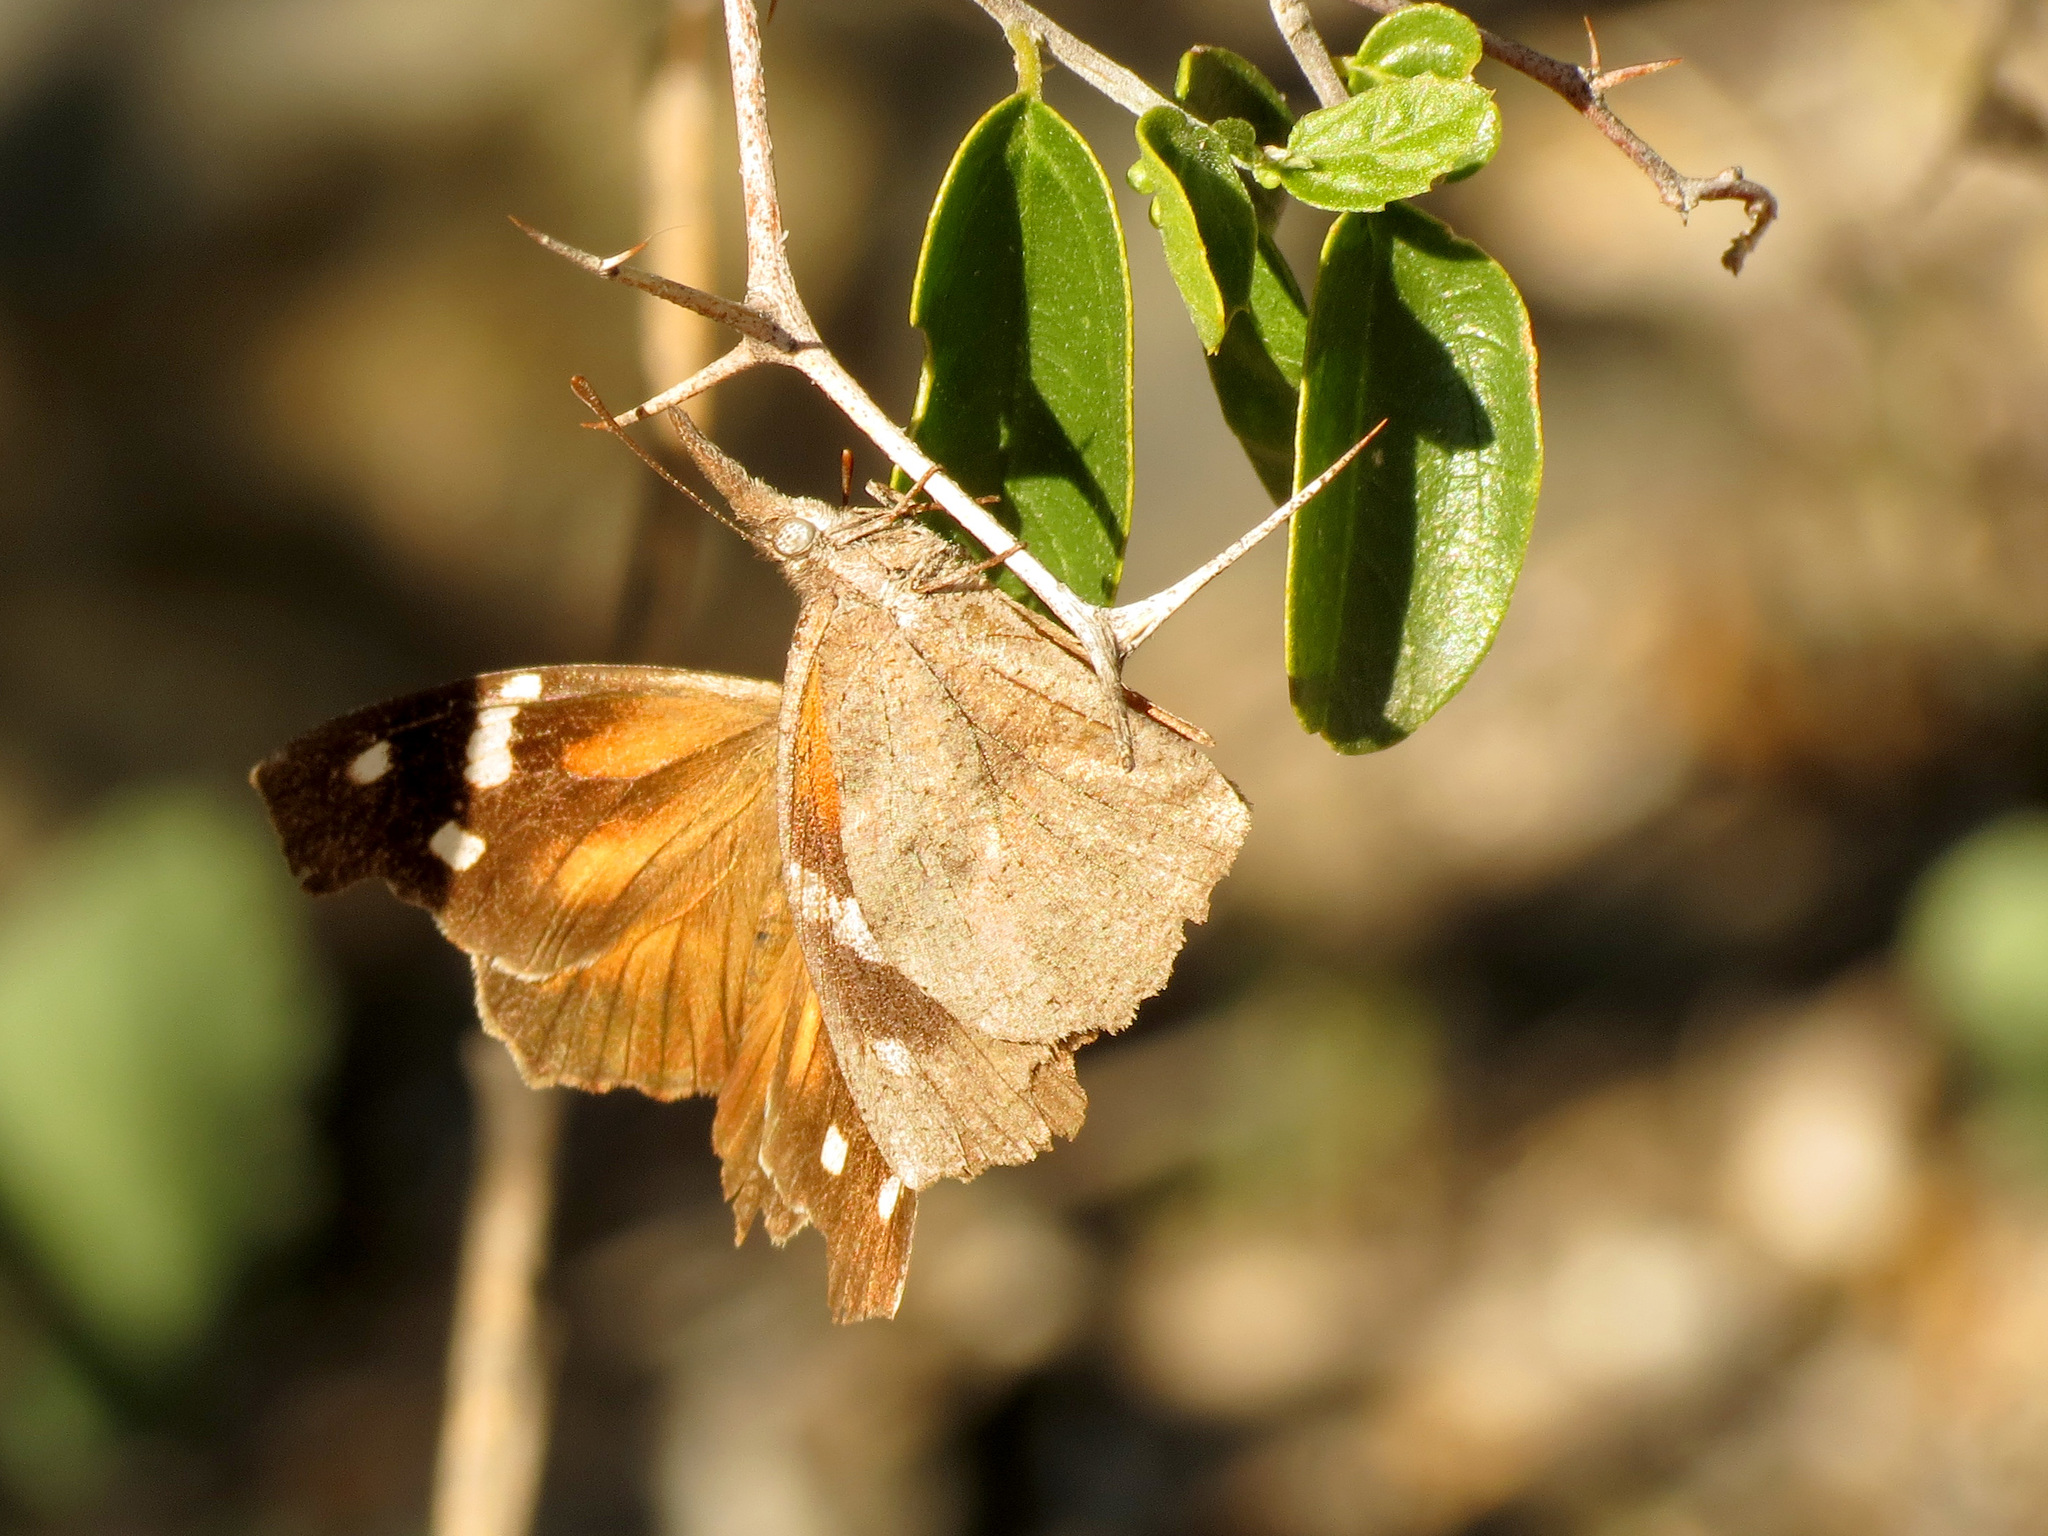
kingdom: Animalia
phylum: Arthropoda
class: Insecta
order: Lepidoptera
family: Nymphalidae
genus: Libytheana
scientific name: Libytheana carinenta
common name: American snout
